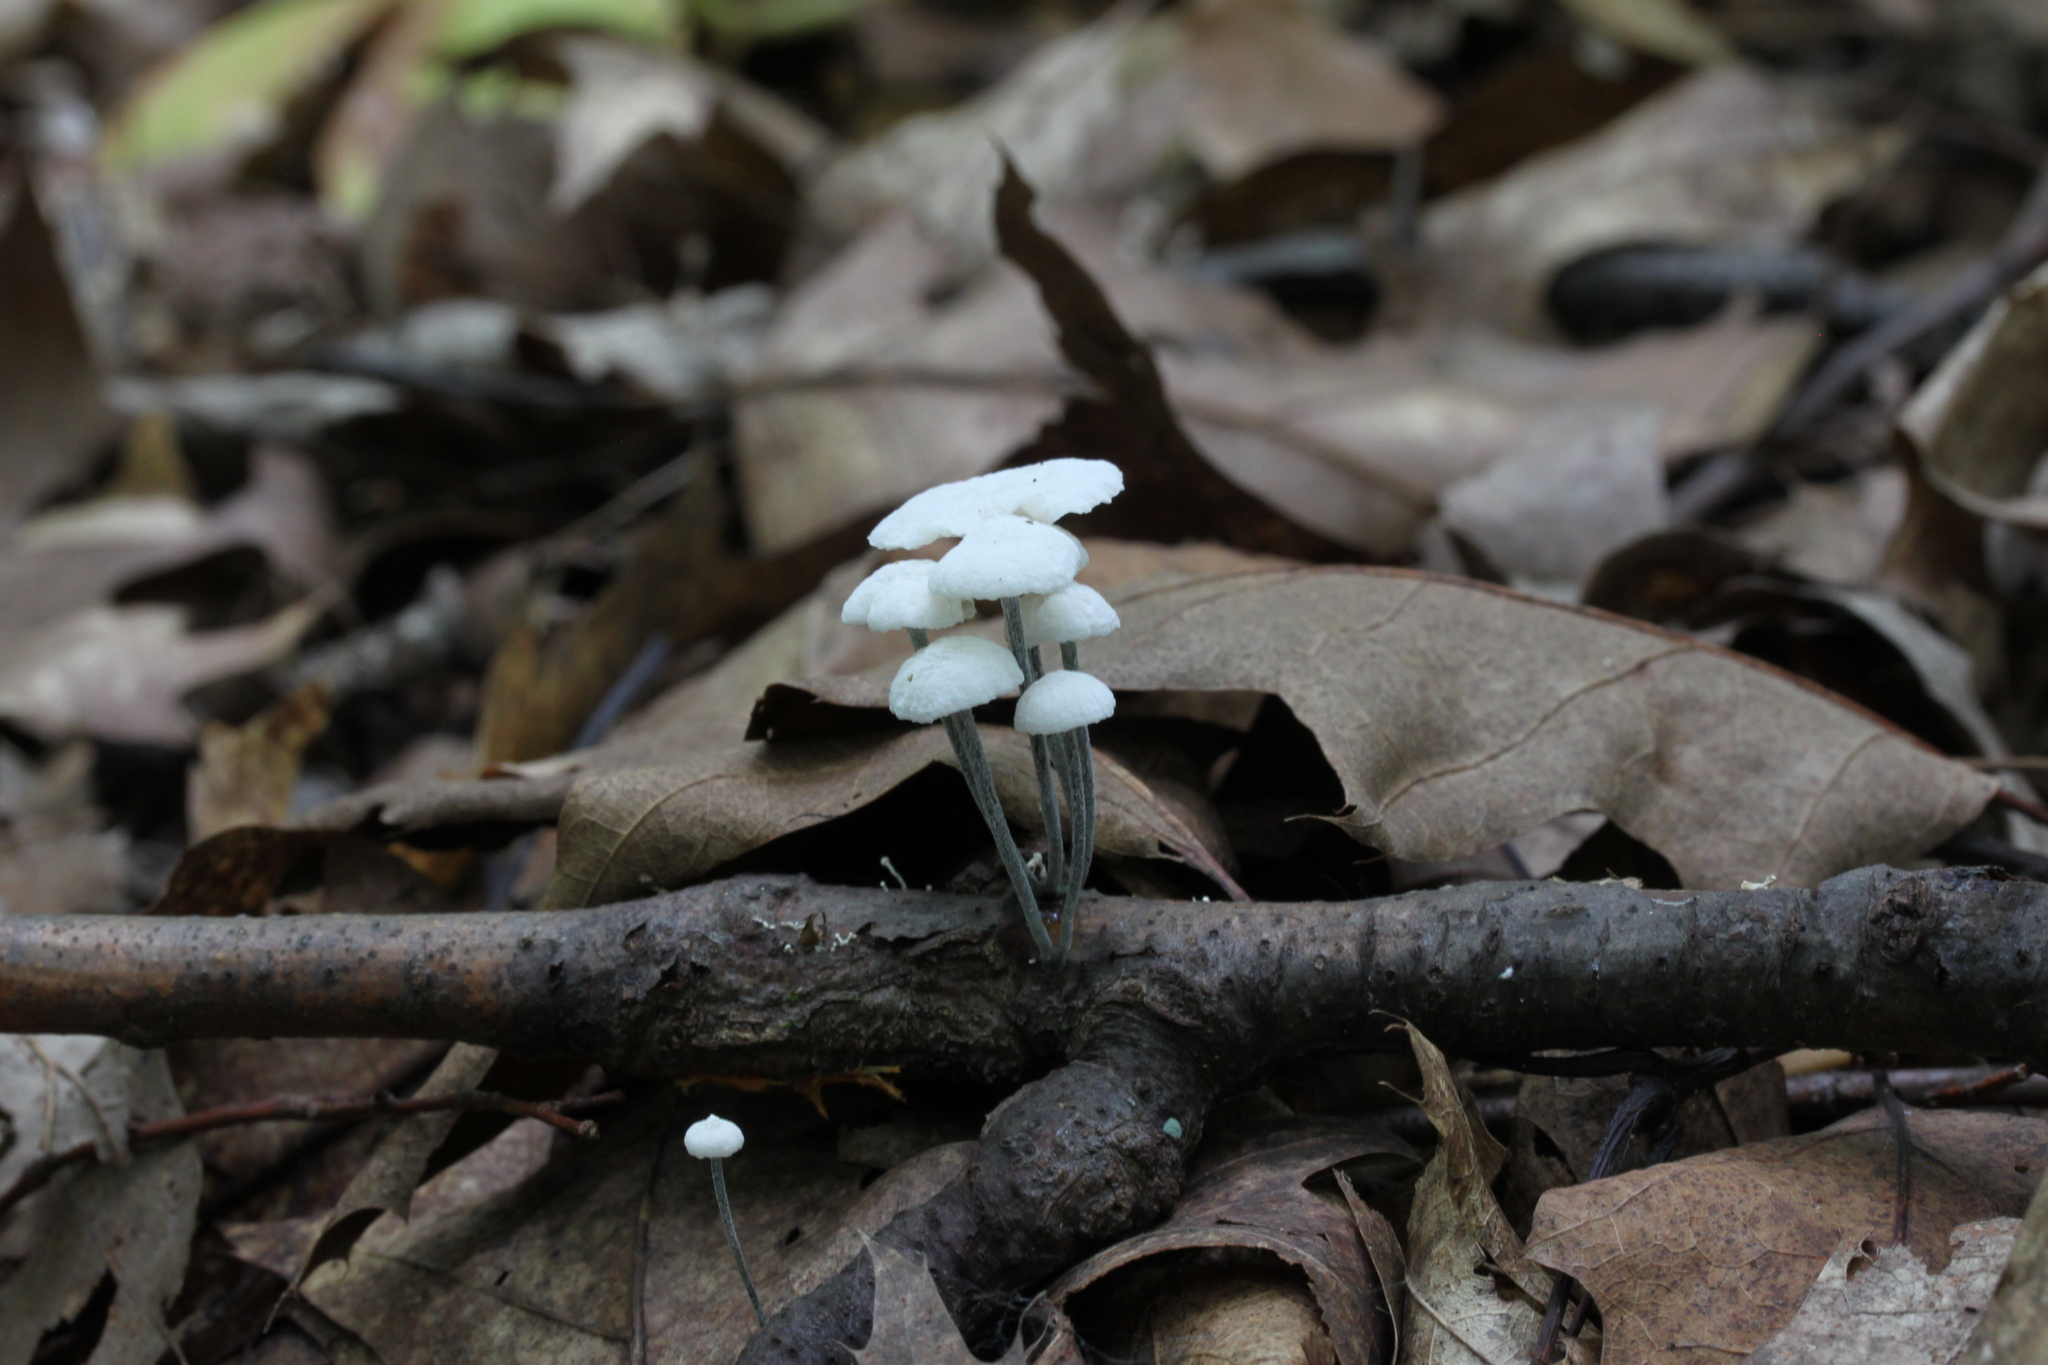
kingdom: Fungi
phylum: Basidiomycota
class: Agaricomycetes
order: Agaricales
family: Marasmiaceae
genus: Tetrapyrgos
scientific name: Tetrapyrgos nigripes
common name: Black-stalked marasmius
